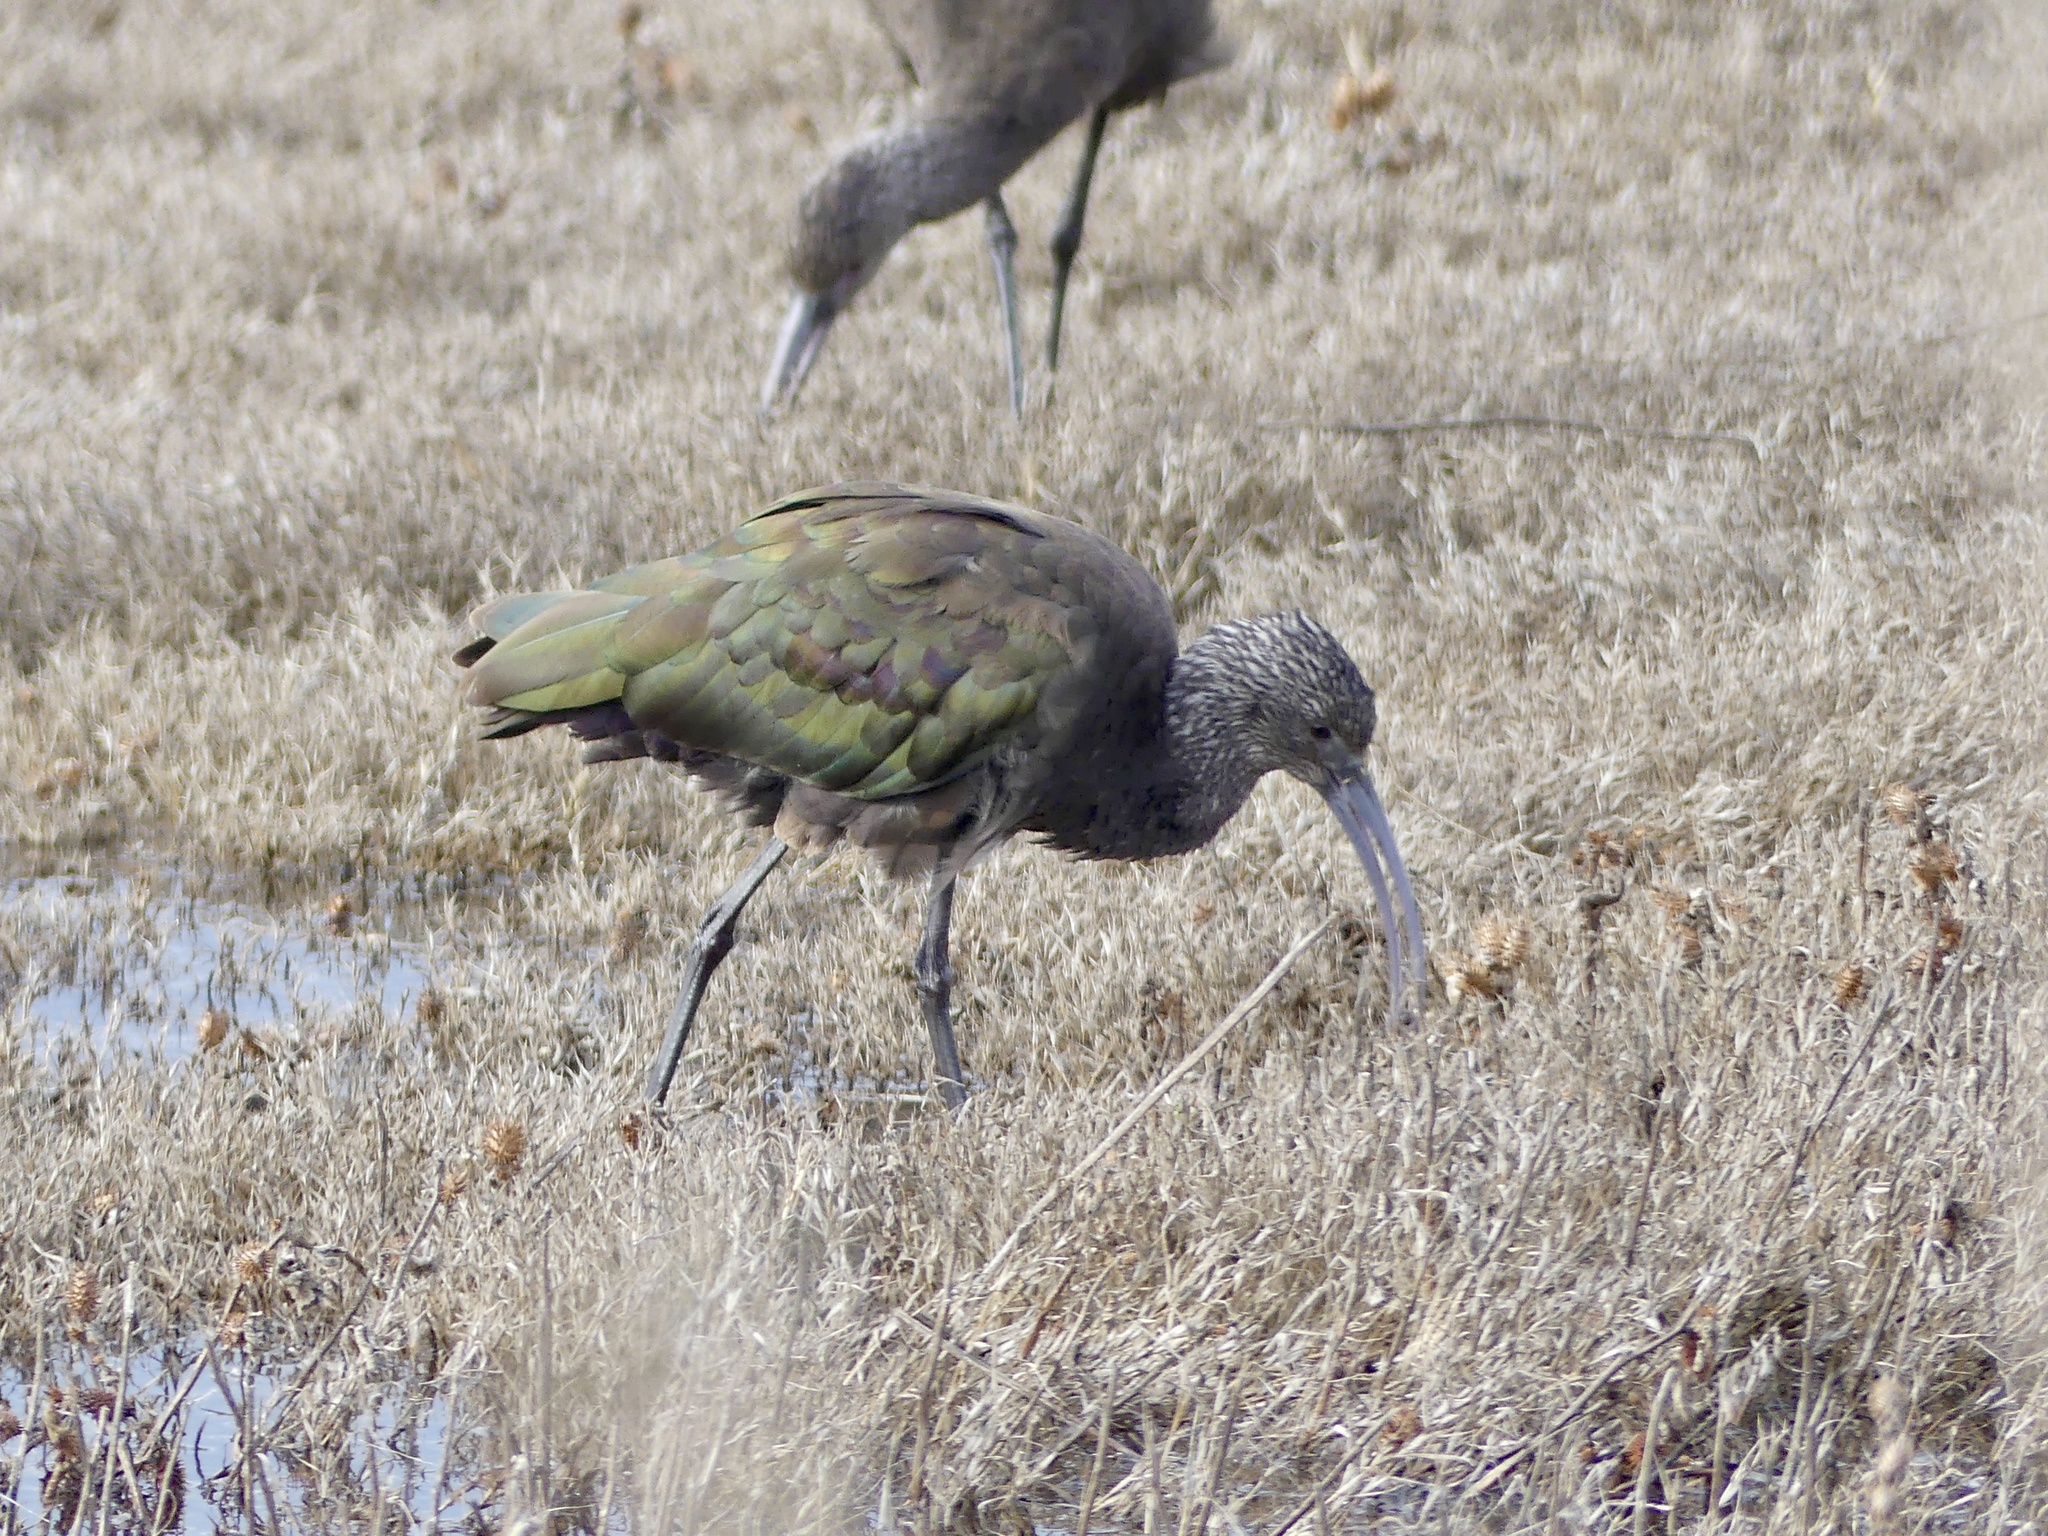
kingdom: Animalia
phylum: Chordata
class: Aves
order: Pelecaniformes
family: Threskiornithidae
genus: Plegadis
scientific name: Plegadis chihi
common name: White-faced ibis
